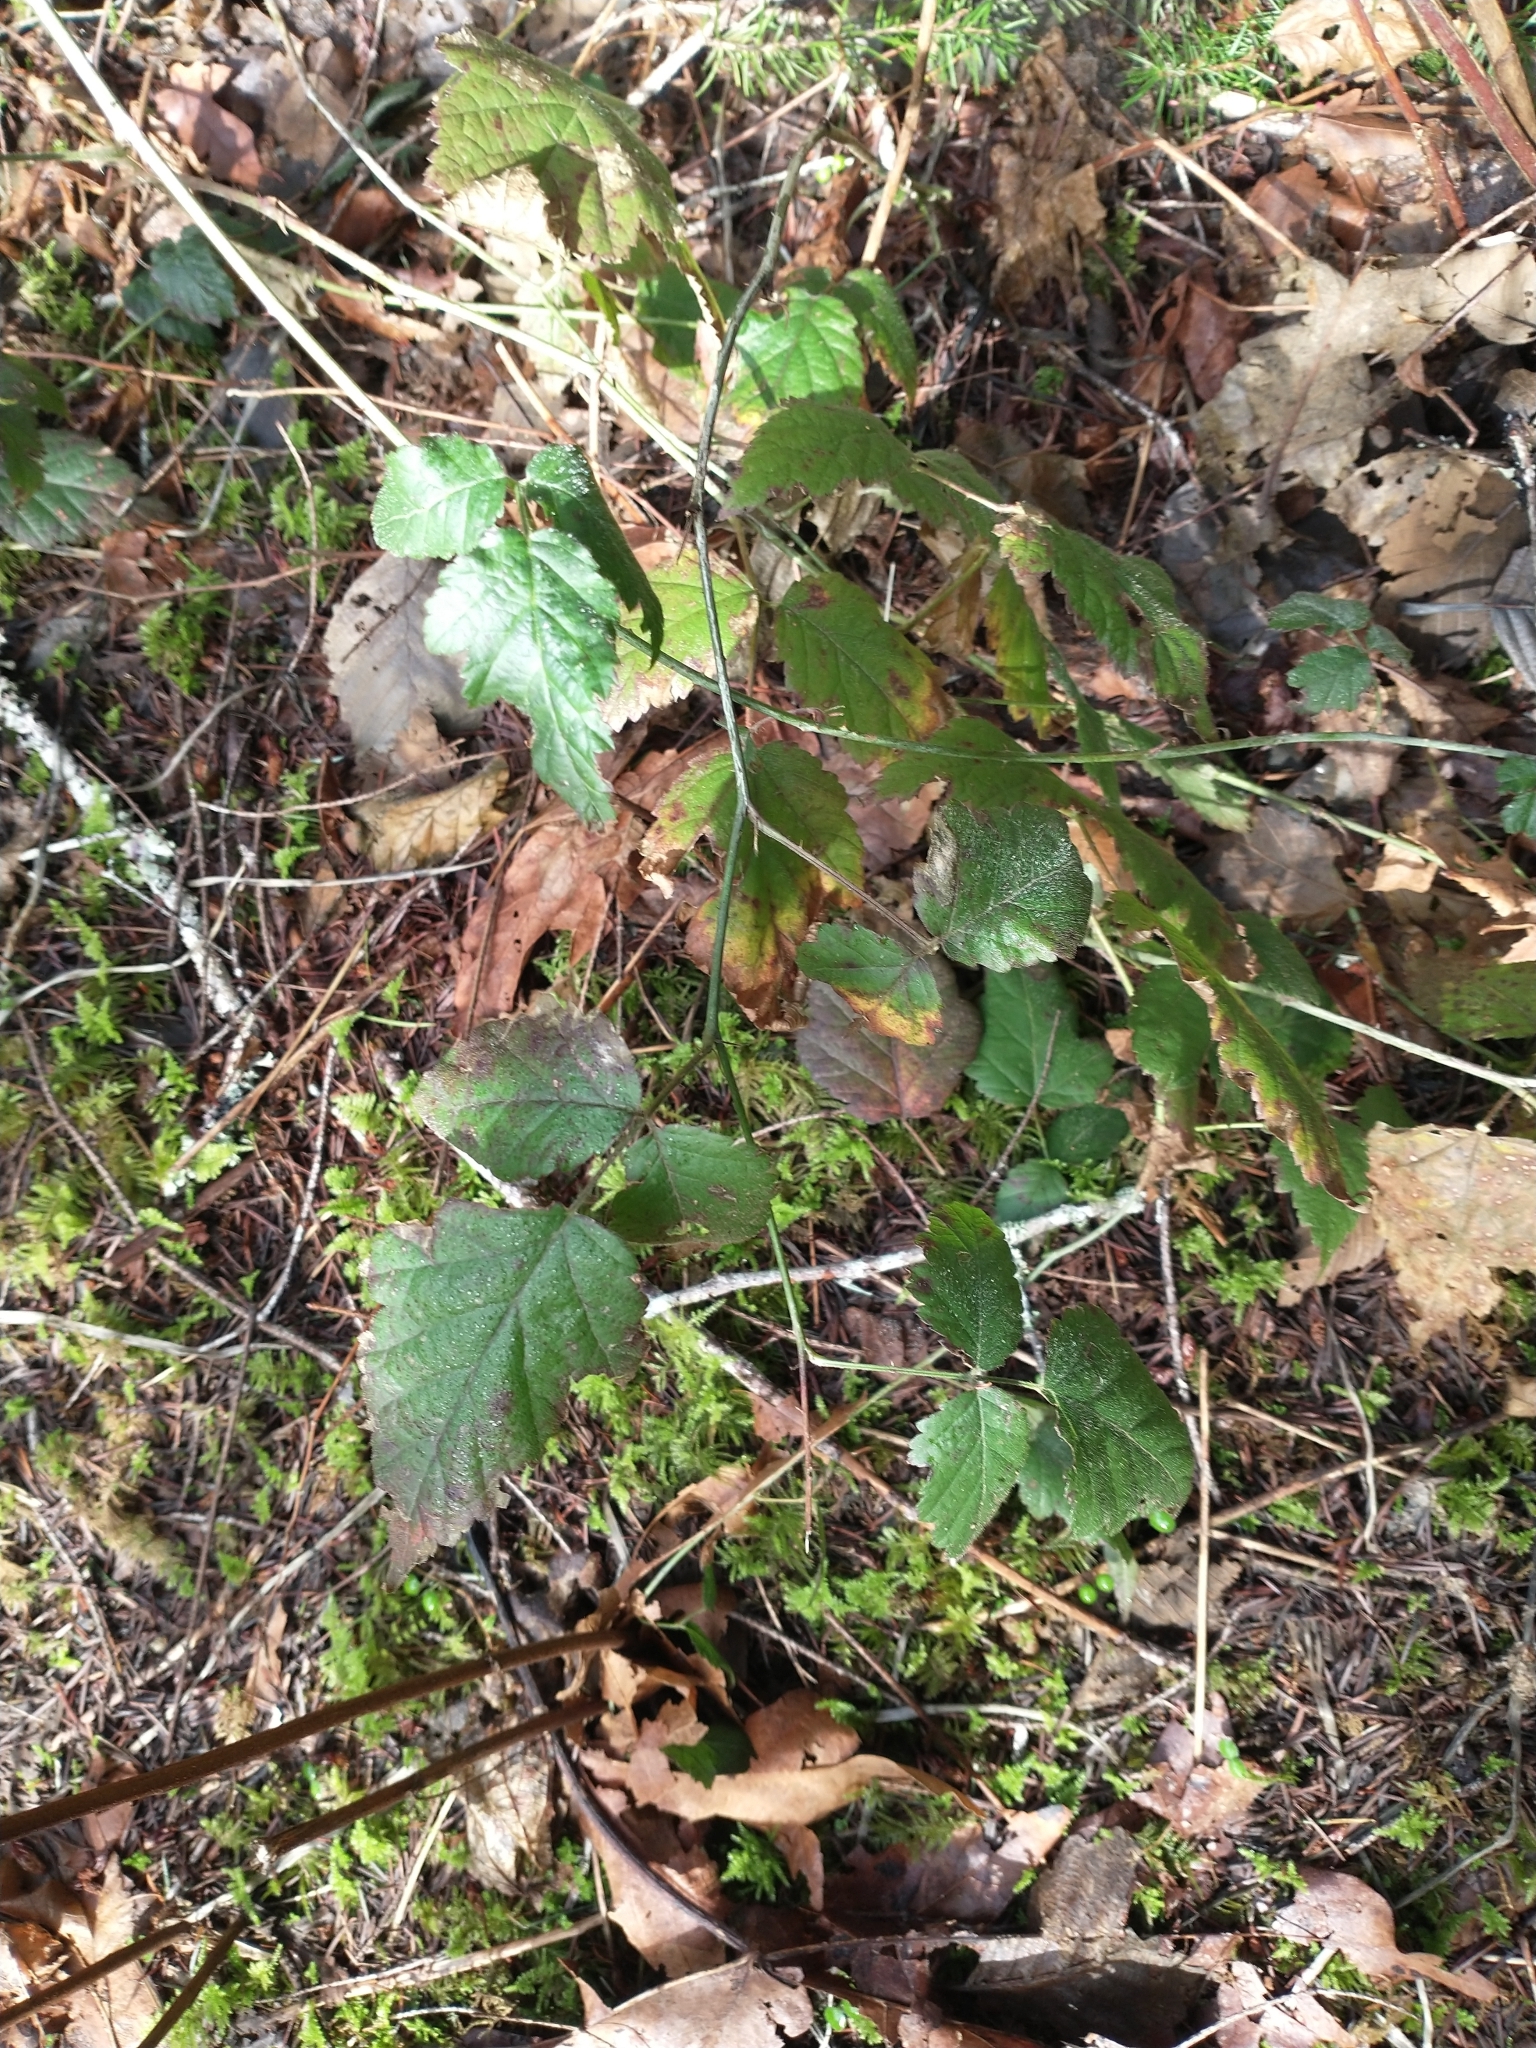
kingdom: Plantae
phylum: Tracheophyta
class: Magnoliopsida
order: Rosales
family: Rosaceae
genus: Rubus
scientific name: Rubus ursinus
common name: Pacific blackberry
